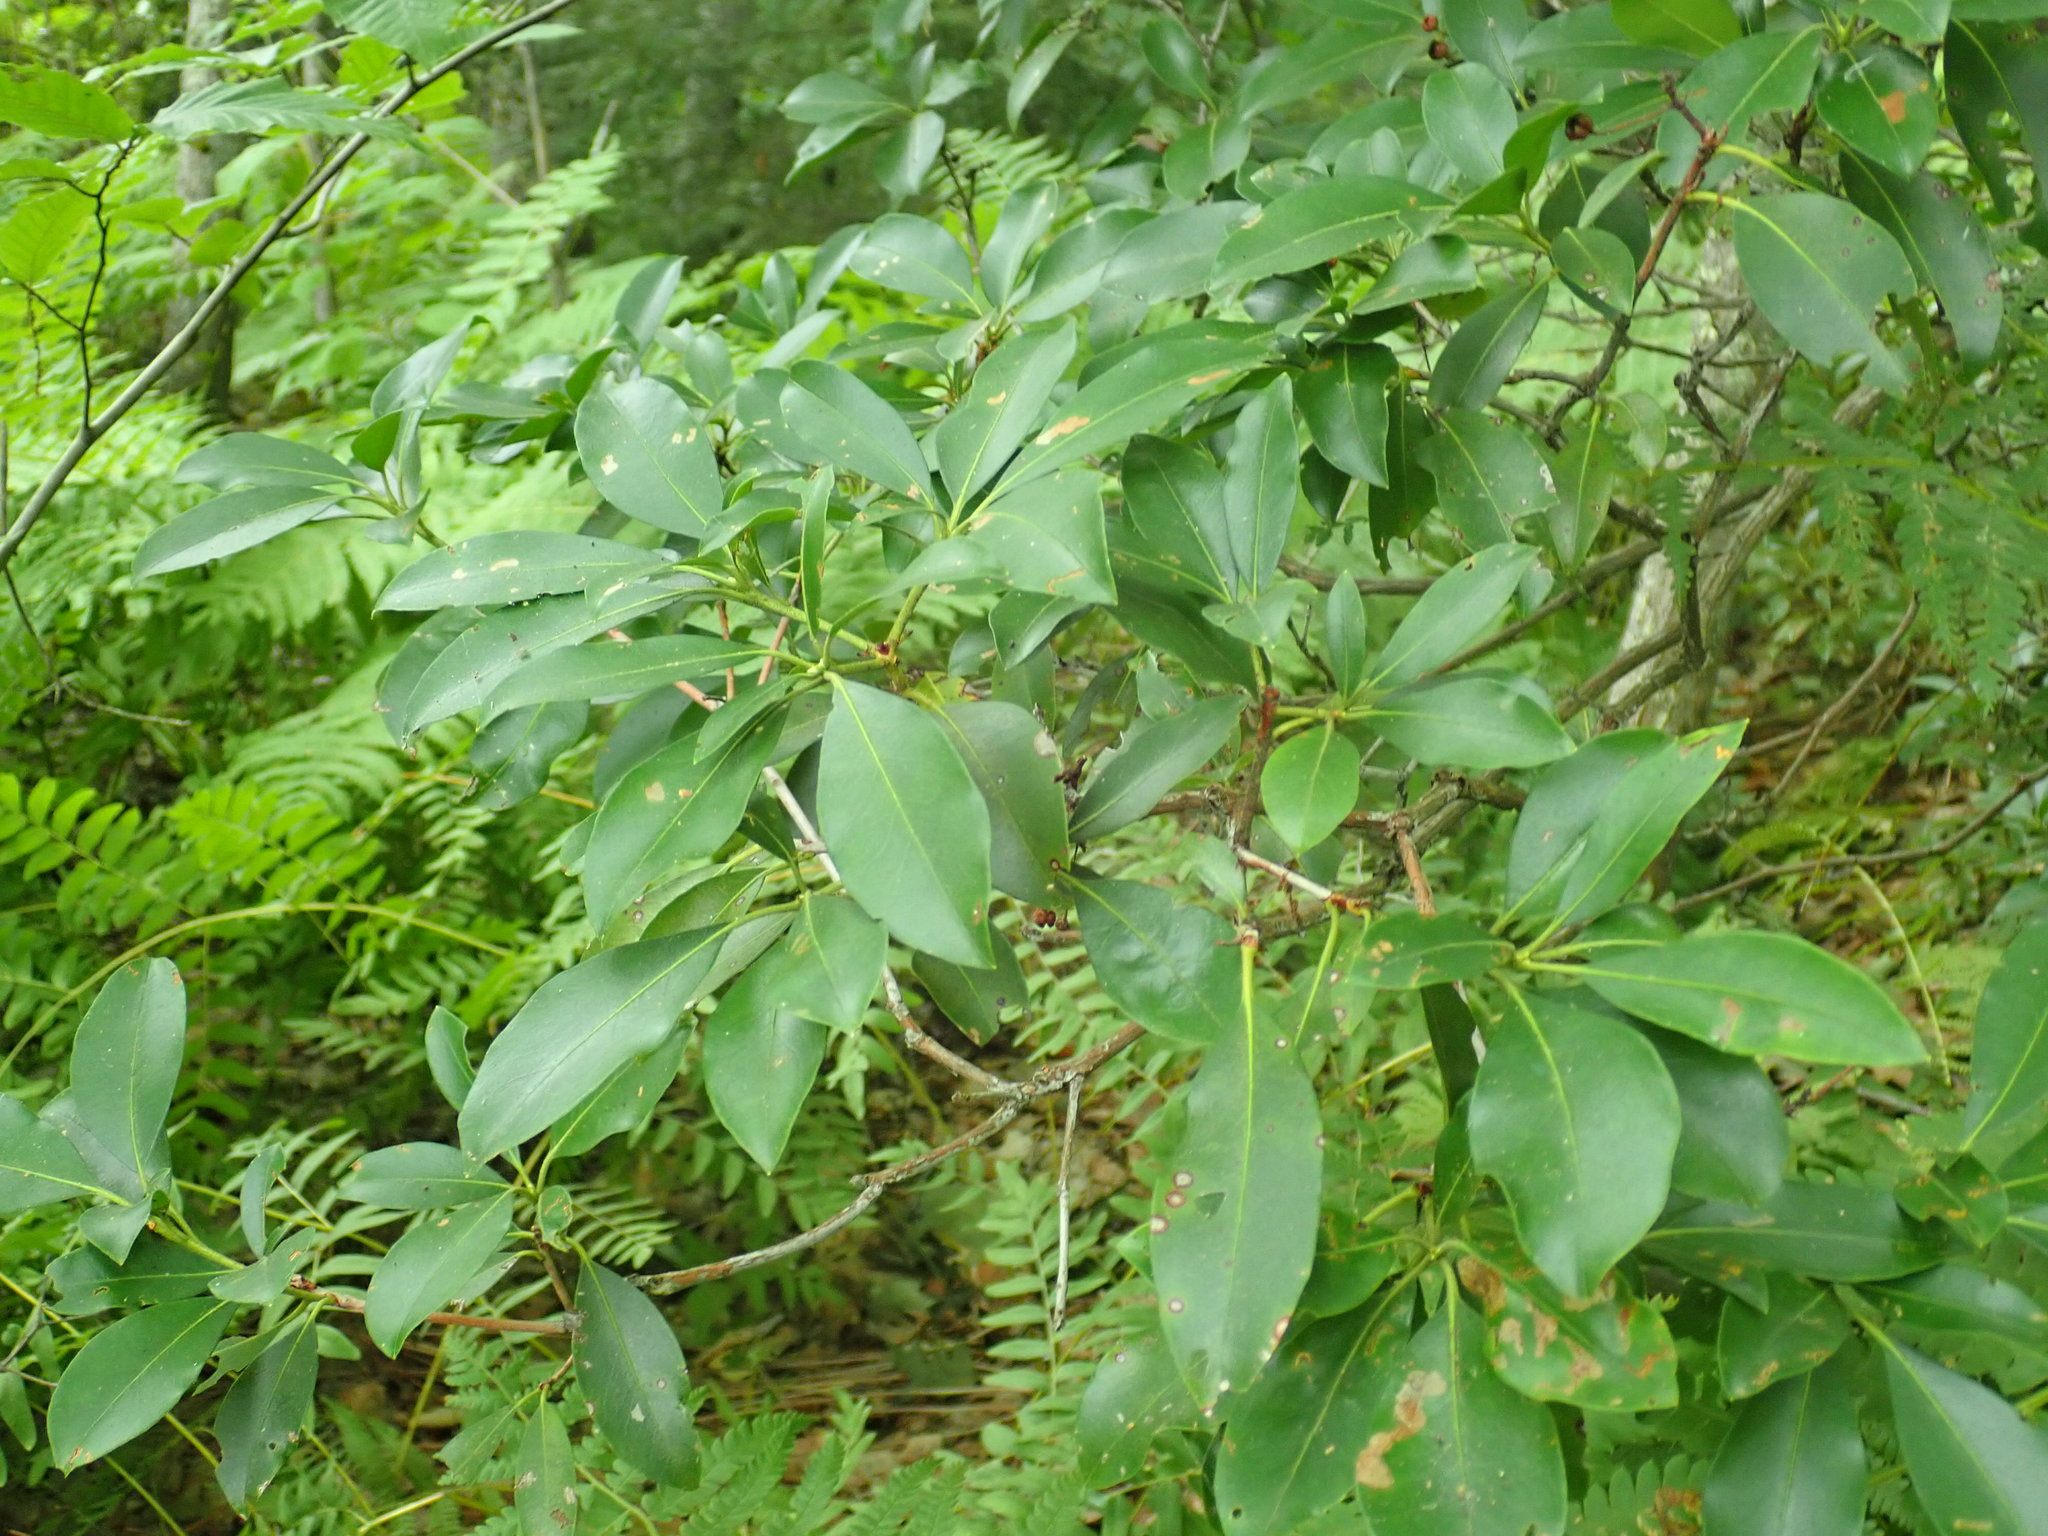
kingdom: Plantae
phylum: Tracheophyta
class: Magnoliopsida
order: Ericales
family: Ericaceae
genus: Kalmia
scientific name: Kalmia latifolia
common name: Mountain-laurel
